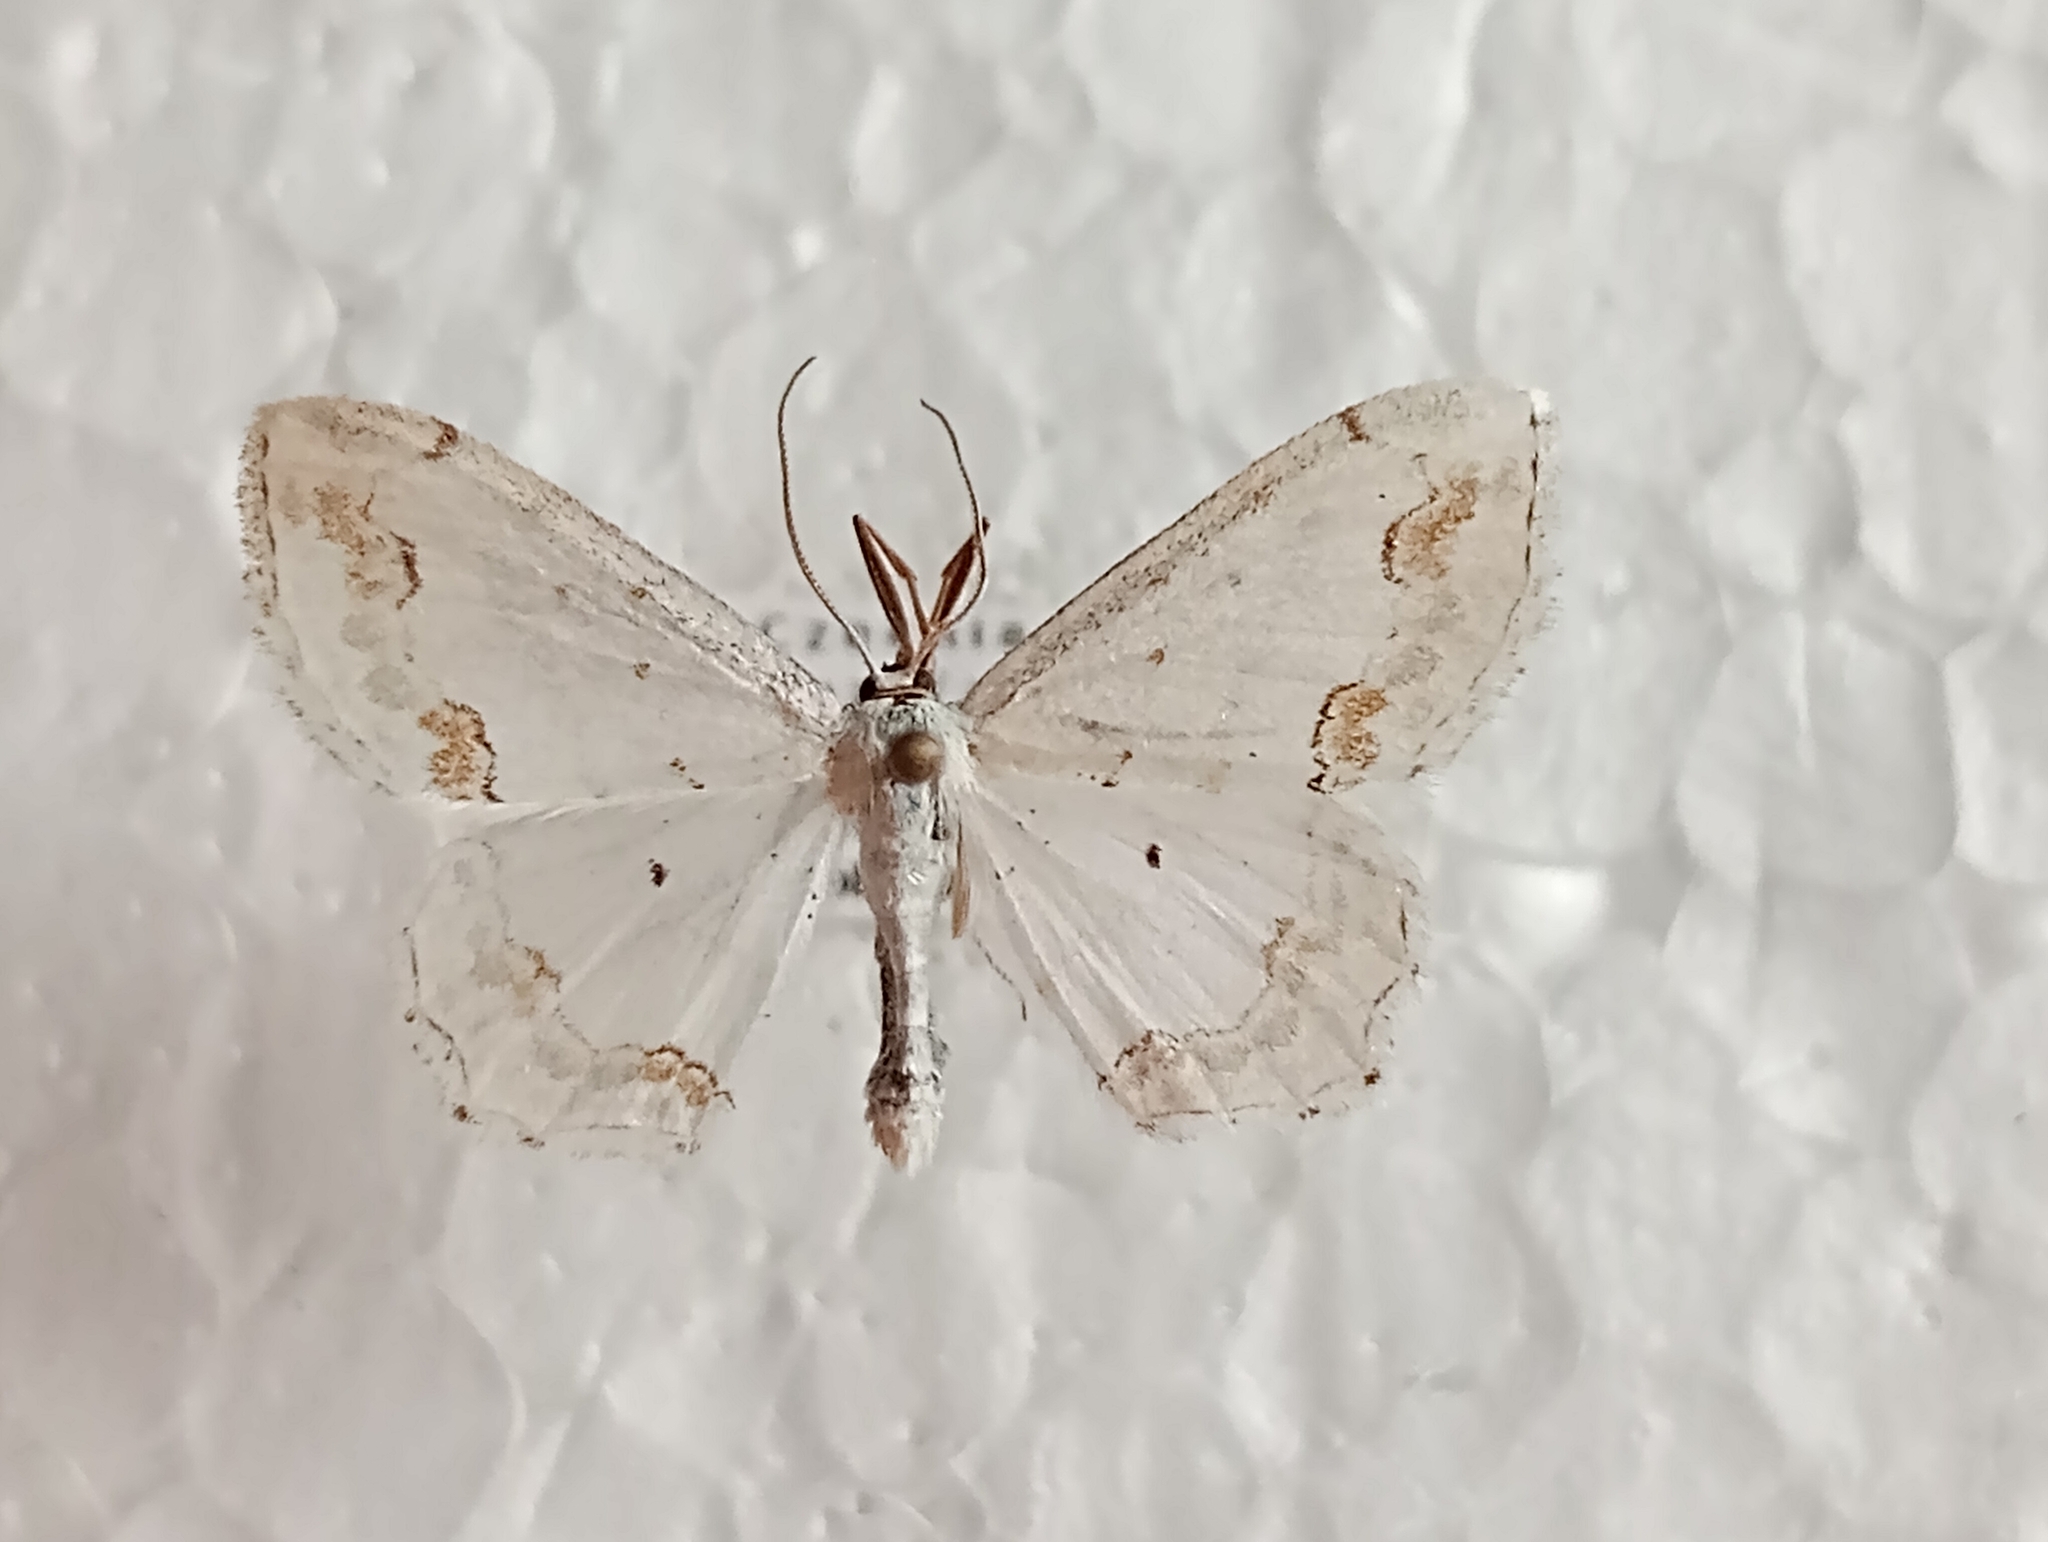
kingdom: Animalia
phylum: Arthropoda
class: Insecta
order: Lepidoptera
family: Geometridae
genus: Scopula
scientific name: Scopula ornata
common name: Lace border
